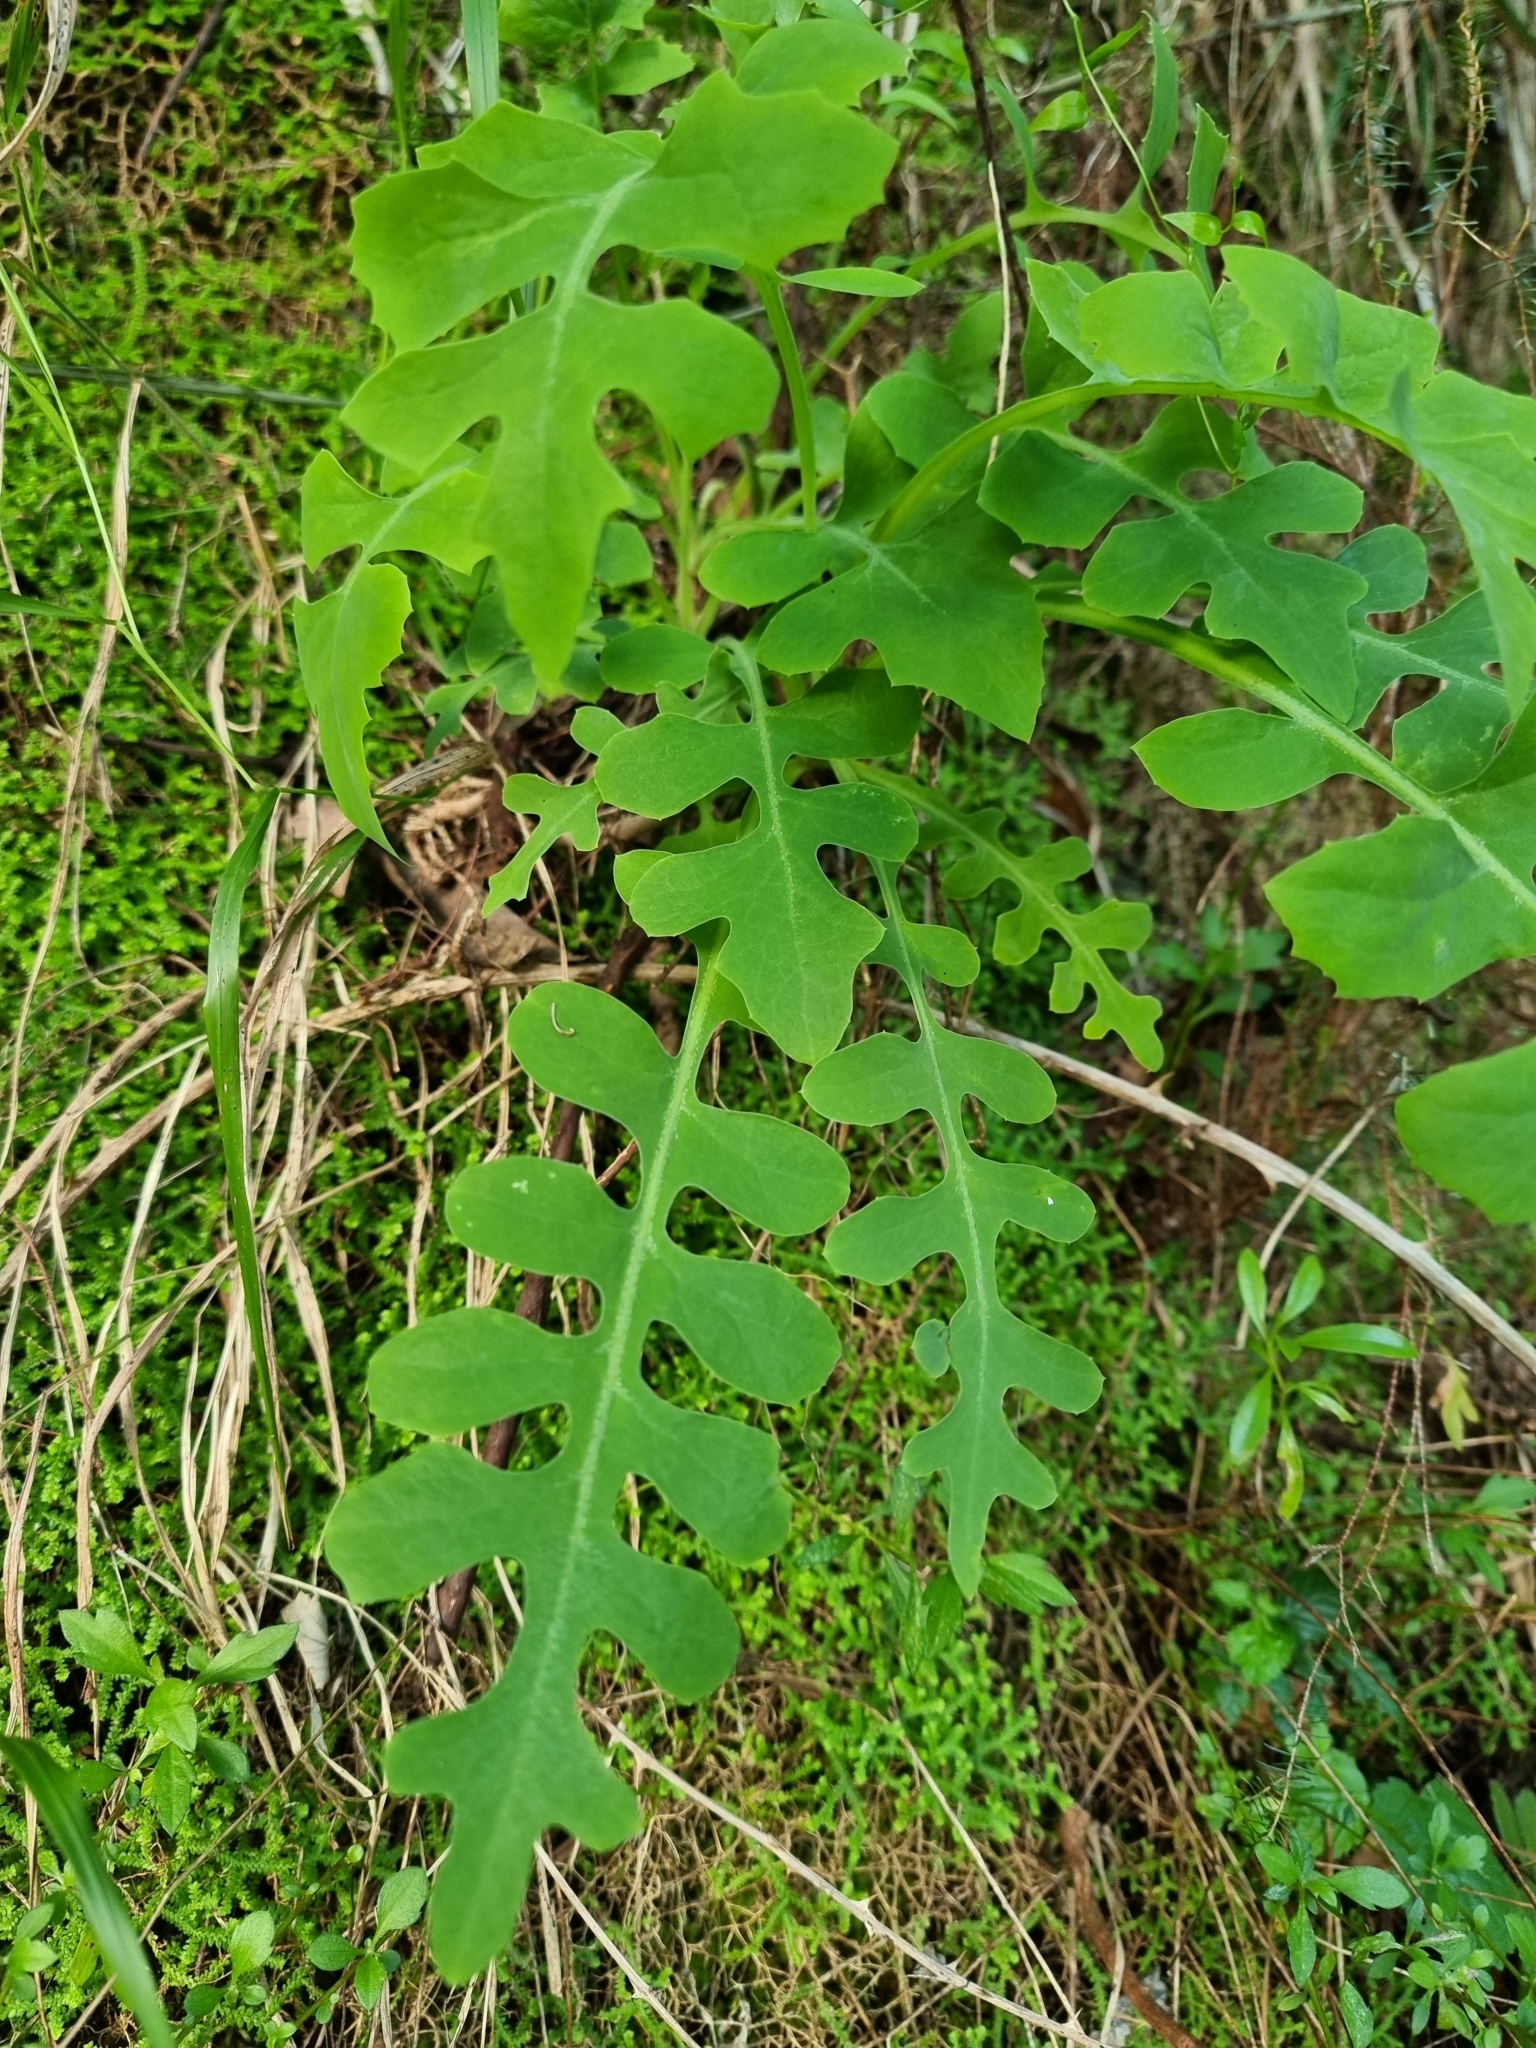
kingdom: Plantae
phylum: Tracheophyta
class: Magnoliopsida
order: Asterales
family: Asteraceae
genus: Sonchus
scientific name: Sonchus latifolius
